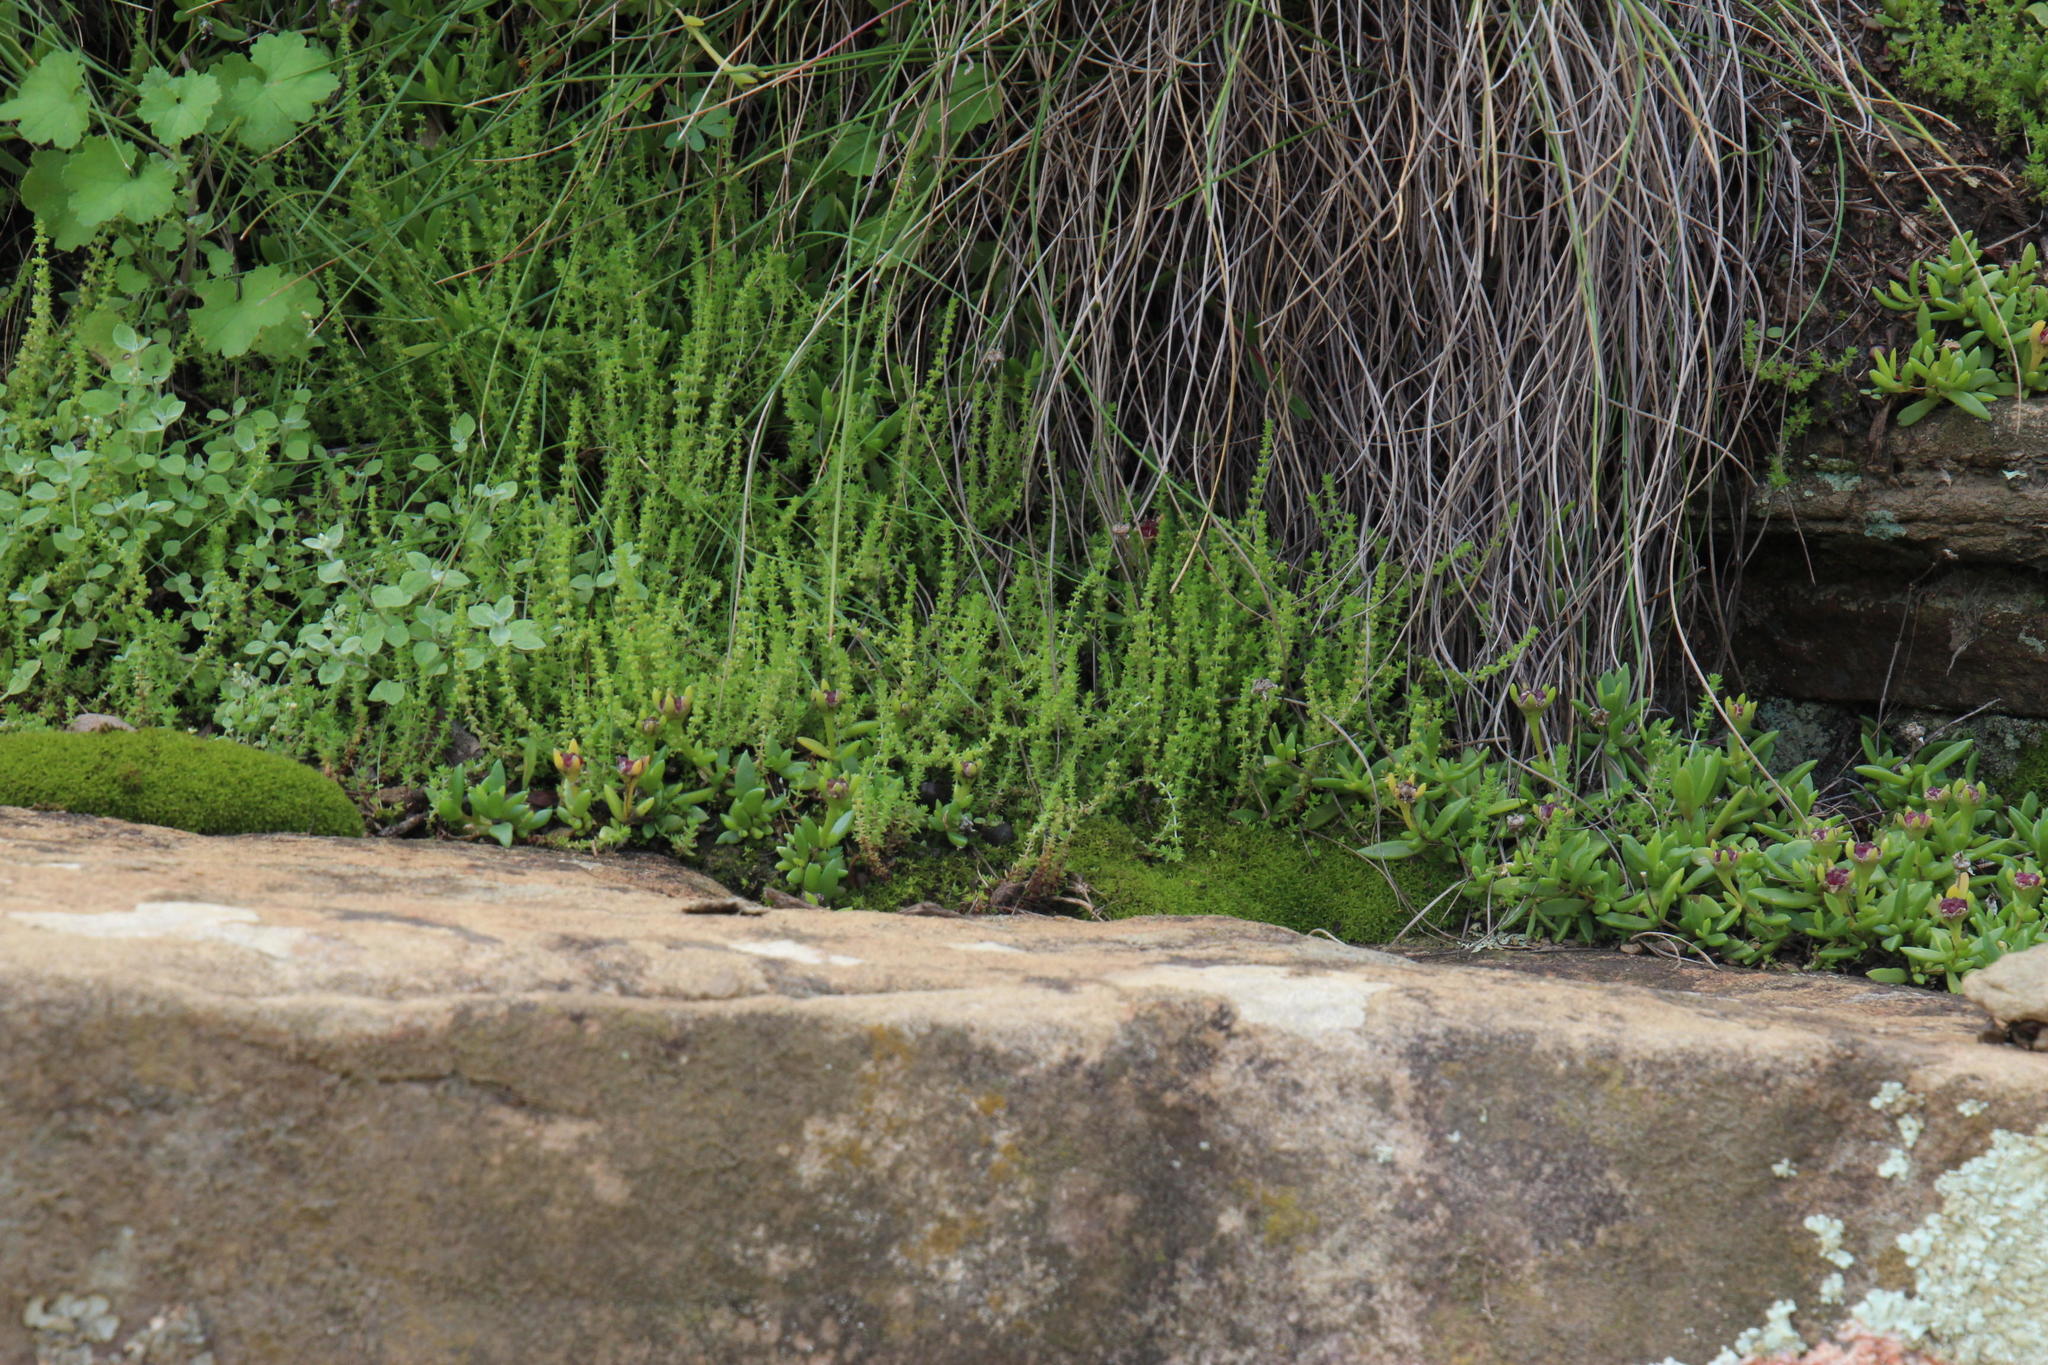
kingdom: Plantae
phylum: Tracheophyta
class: Magnoliopsida
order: Saxifragales
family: Crassulaceae
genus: Crassula
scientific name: Crassula lanceolata
